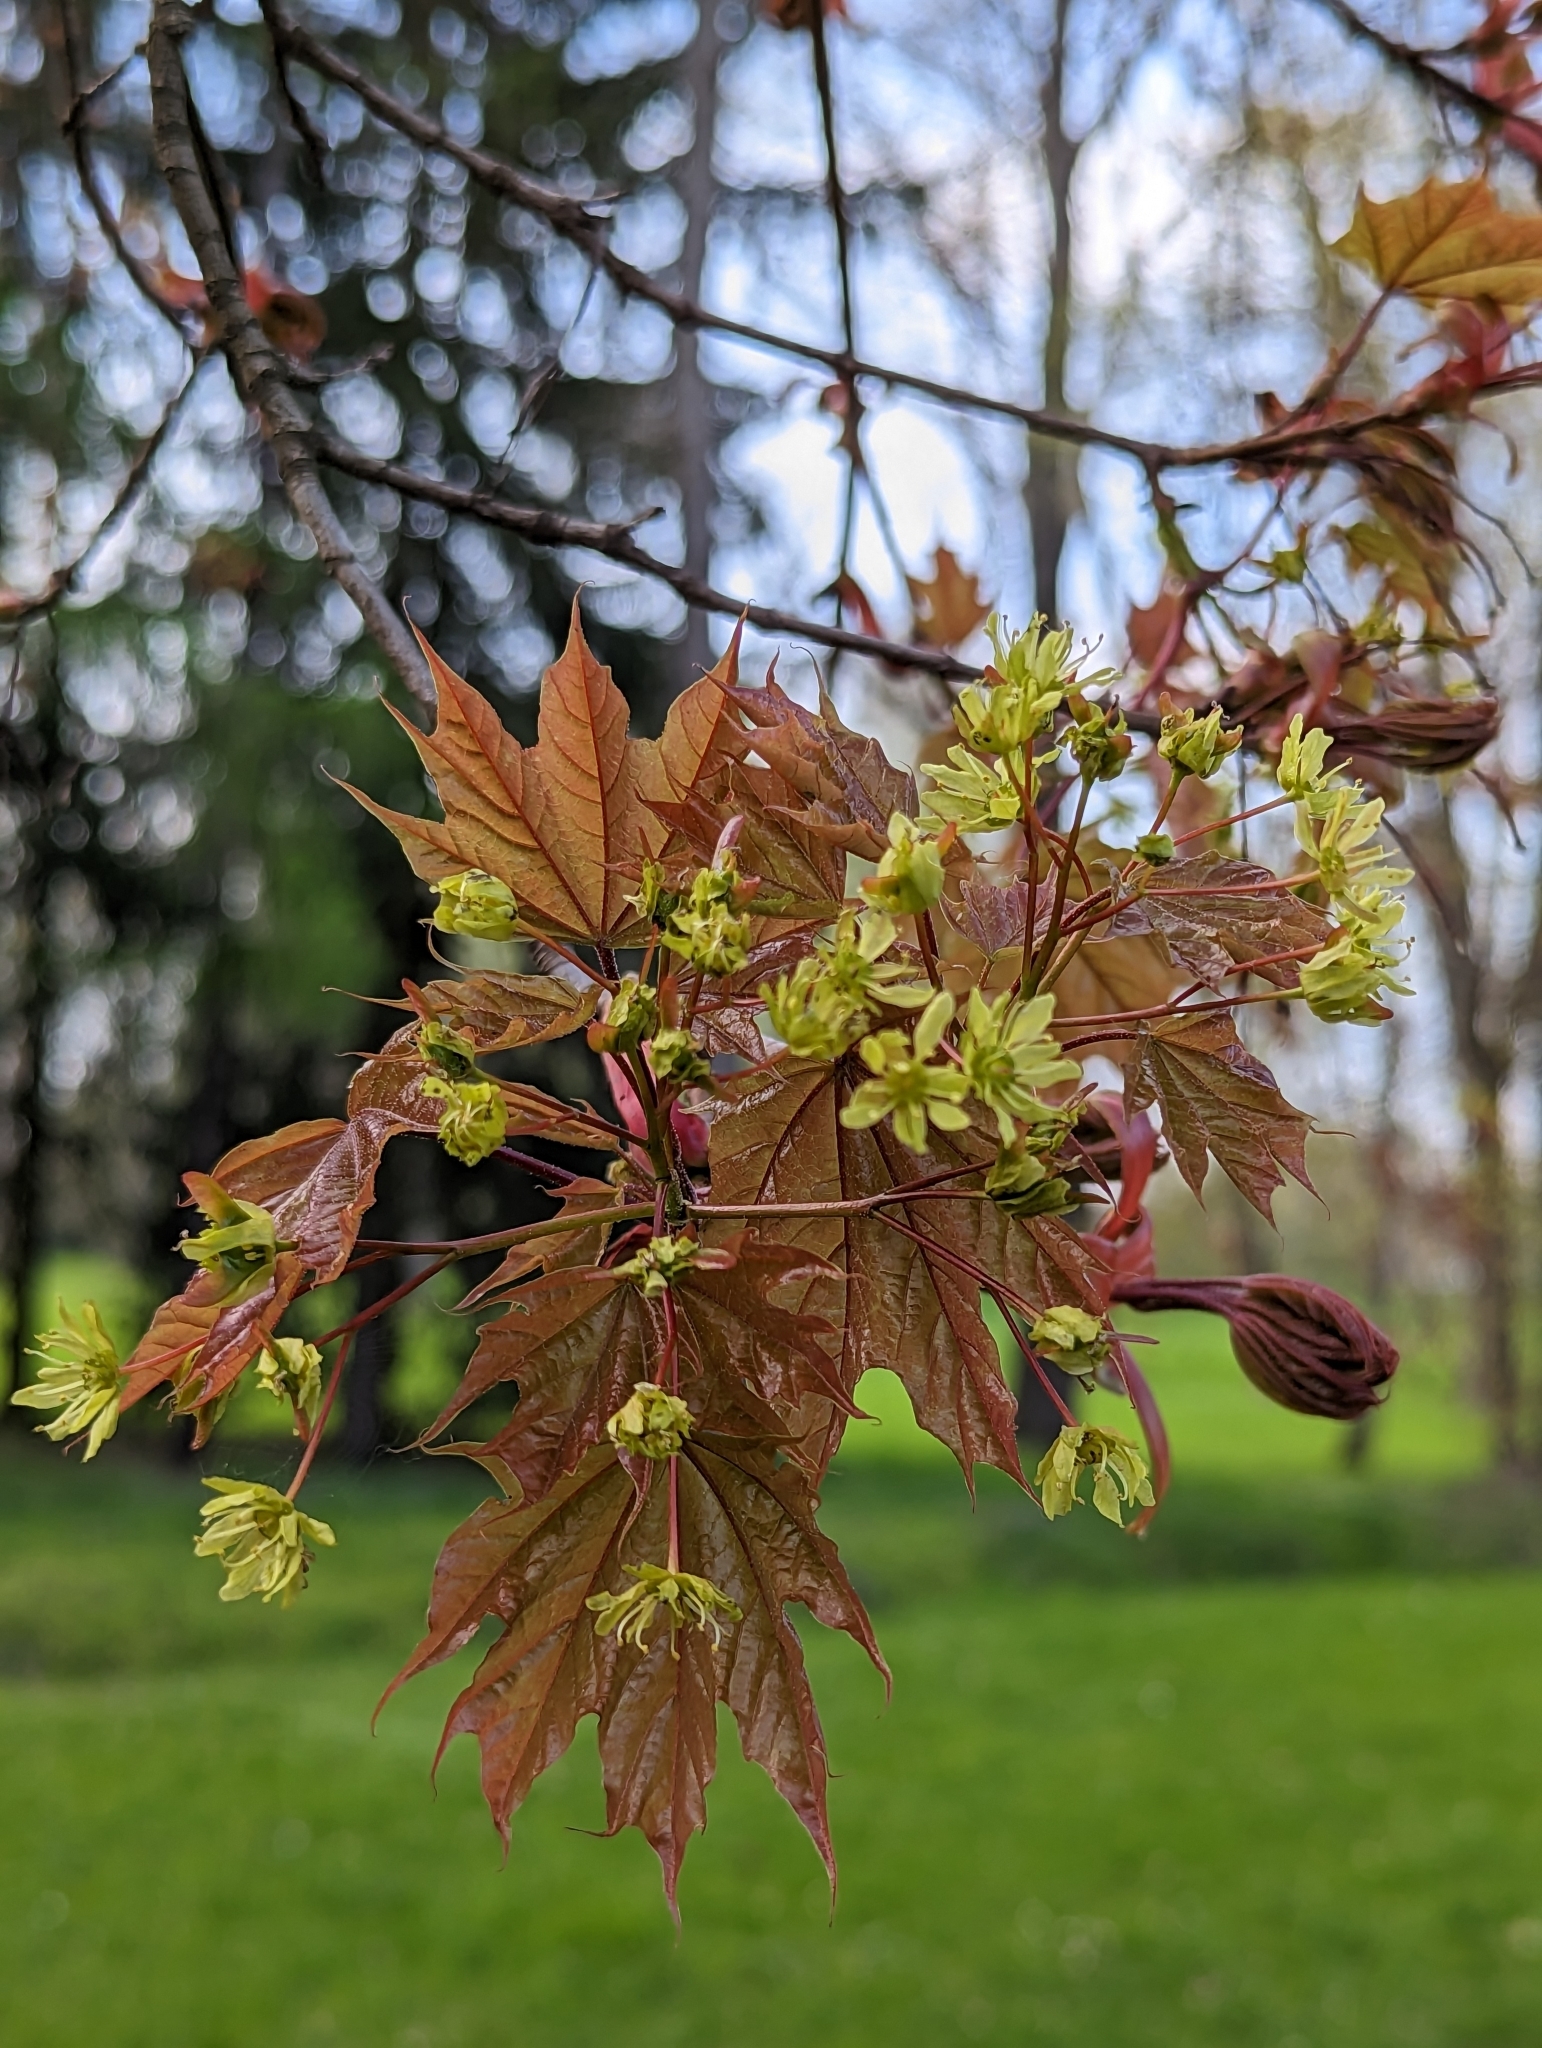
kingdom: Plantae
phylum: Tracheophyta
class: Magnoliopsida
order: Sapindales
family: Sapindaceae
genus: Acer
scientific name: Acer platanoides
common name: Norway maple
